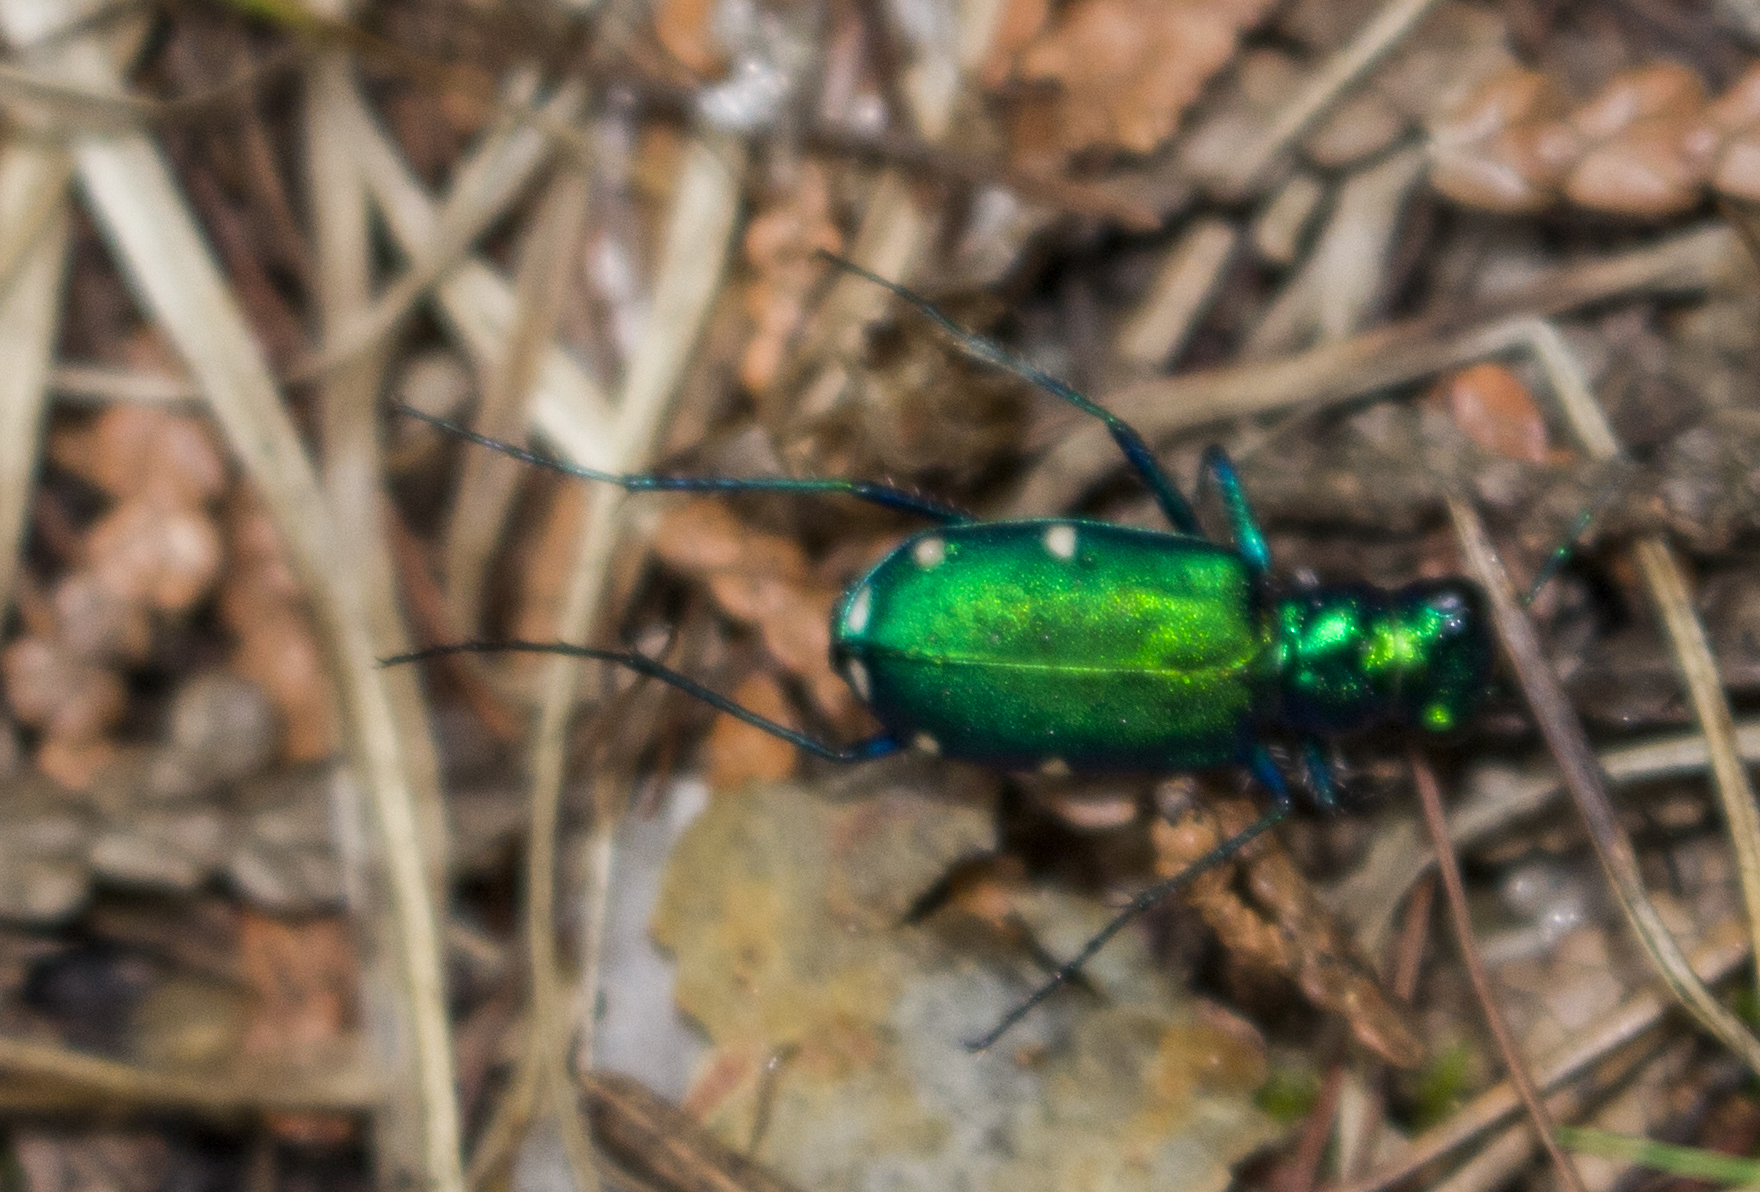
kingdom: Animalia
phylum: Arthropoda
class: Insecta
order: Coleoptera
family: Carabidae
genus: Cicindela
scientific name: Cicindela sexguttata
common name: Six-spotted tiger beetle
